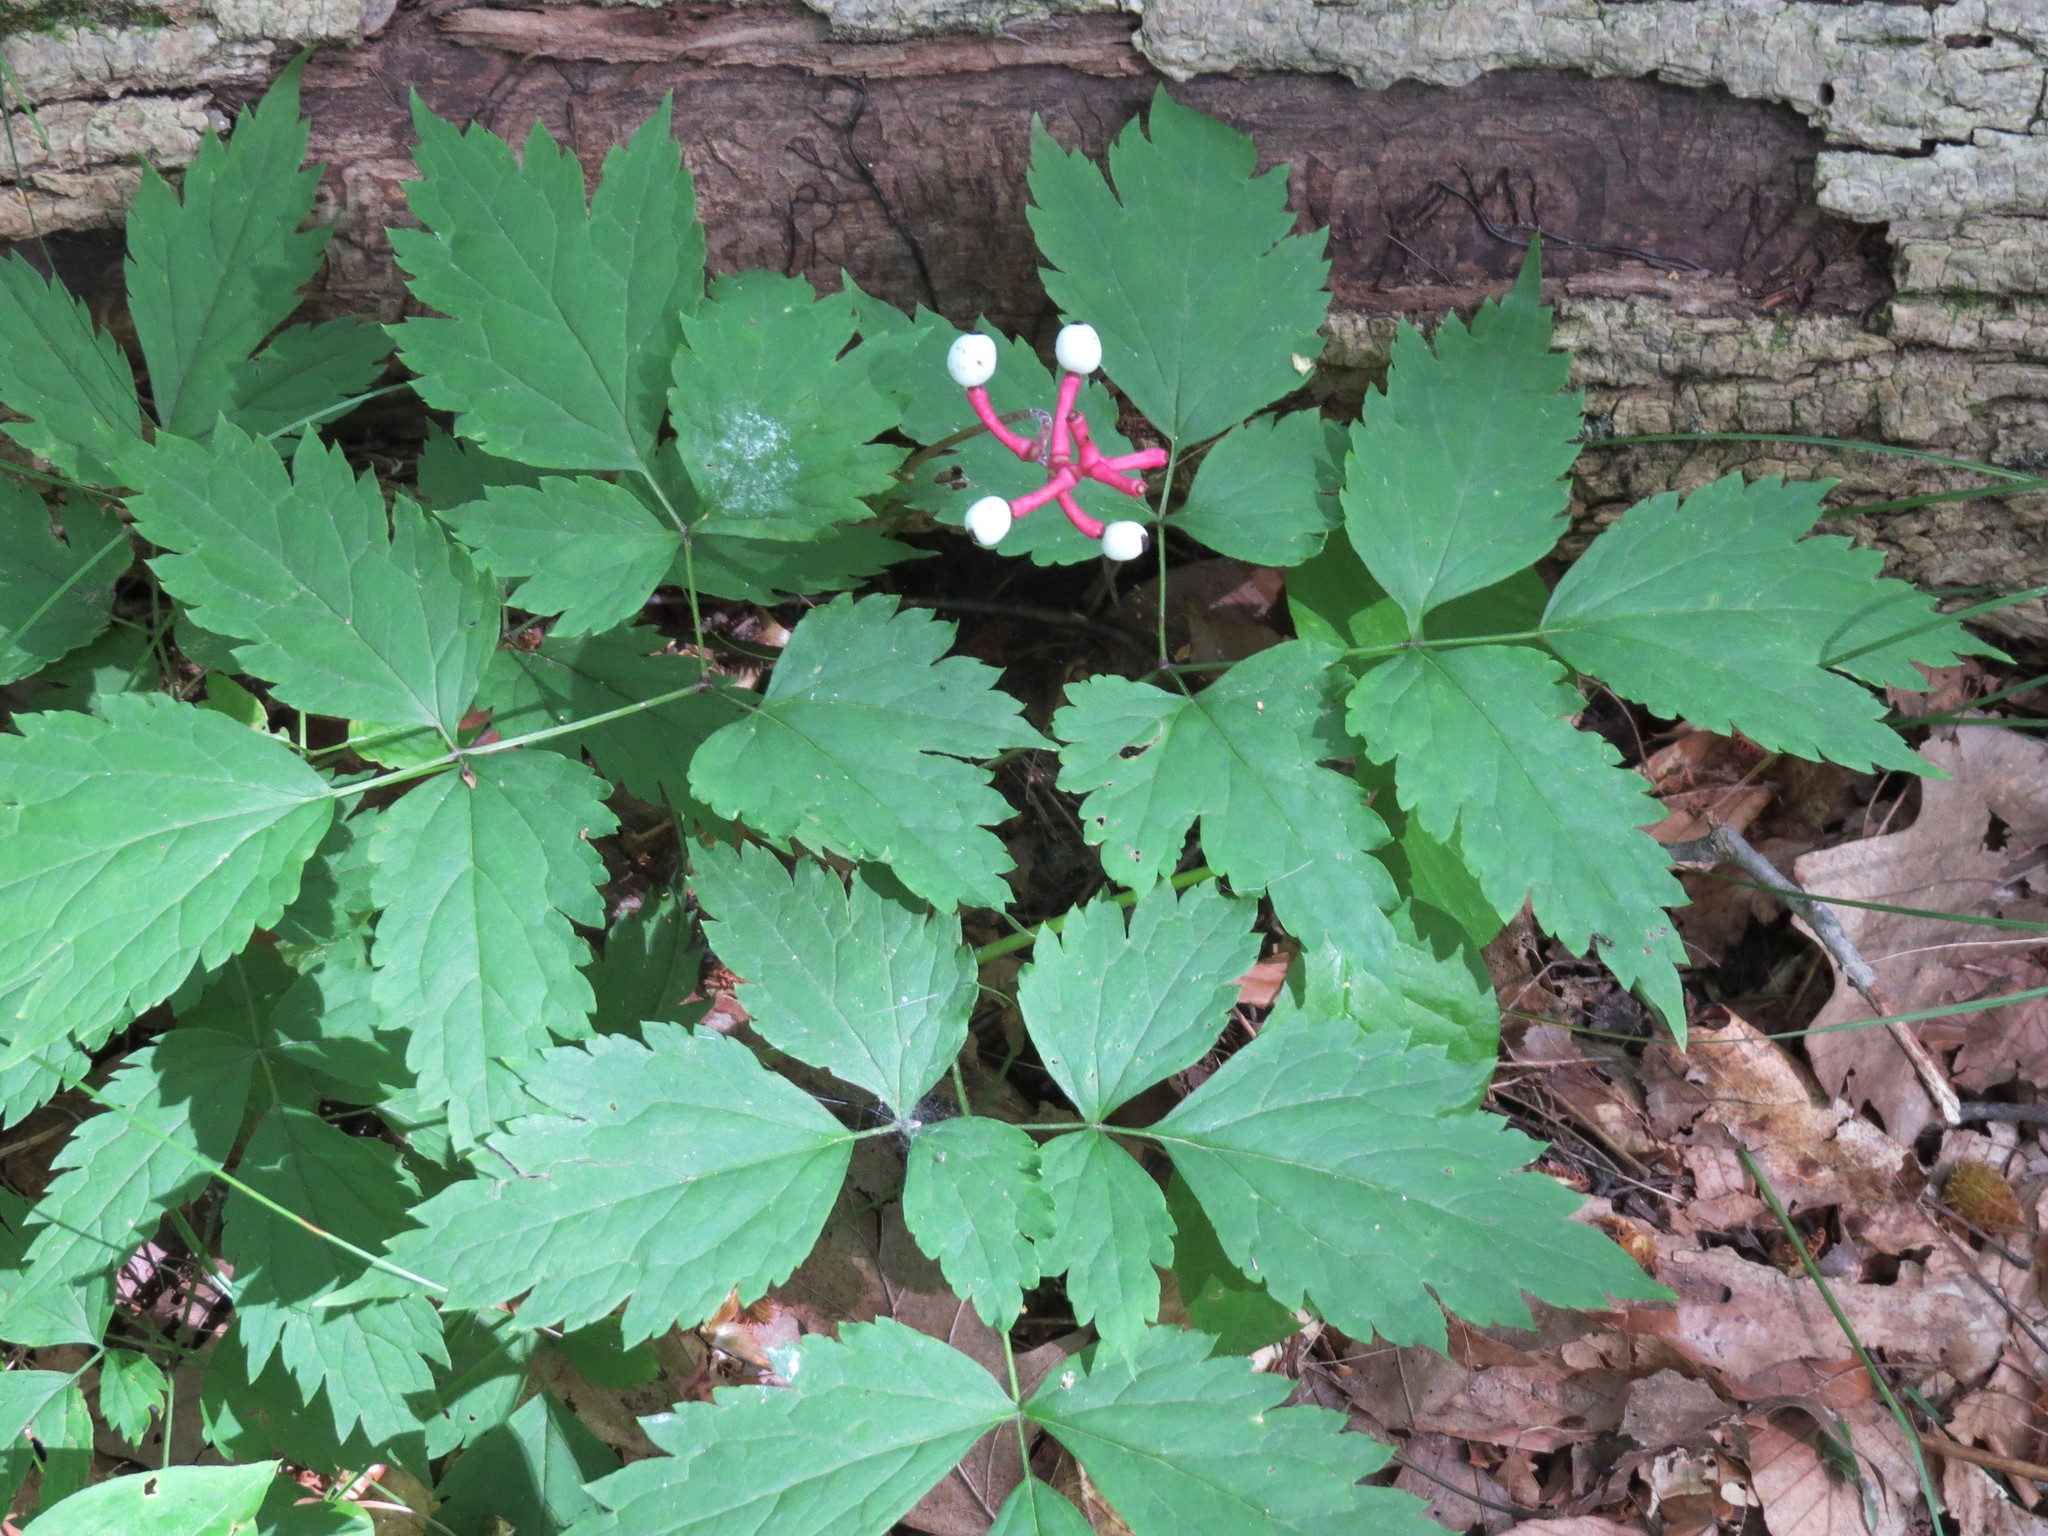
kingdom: Plantae
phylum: Tracheophyta
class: Magnoliopsida
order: Ranunculales
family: Ranunculaceae
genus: Actaea
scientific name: Actaea pachypoda
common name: Doll's-eyes
